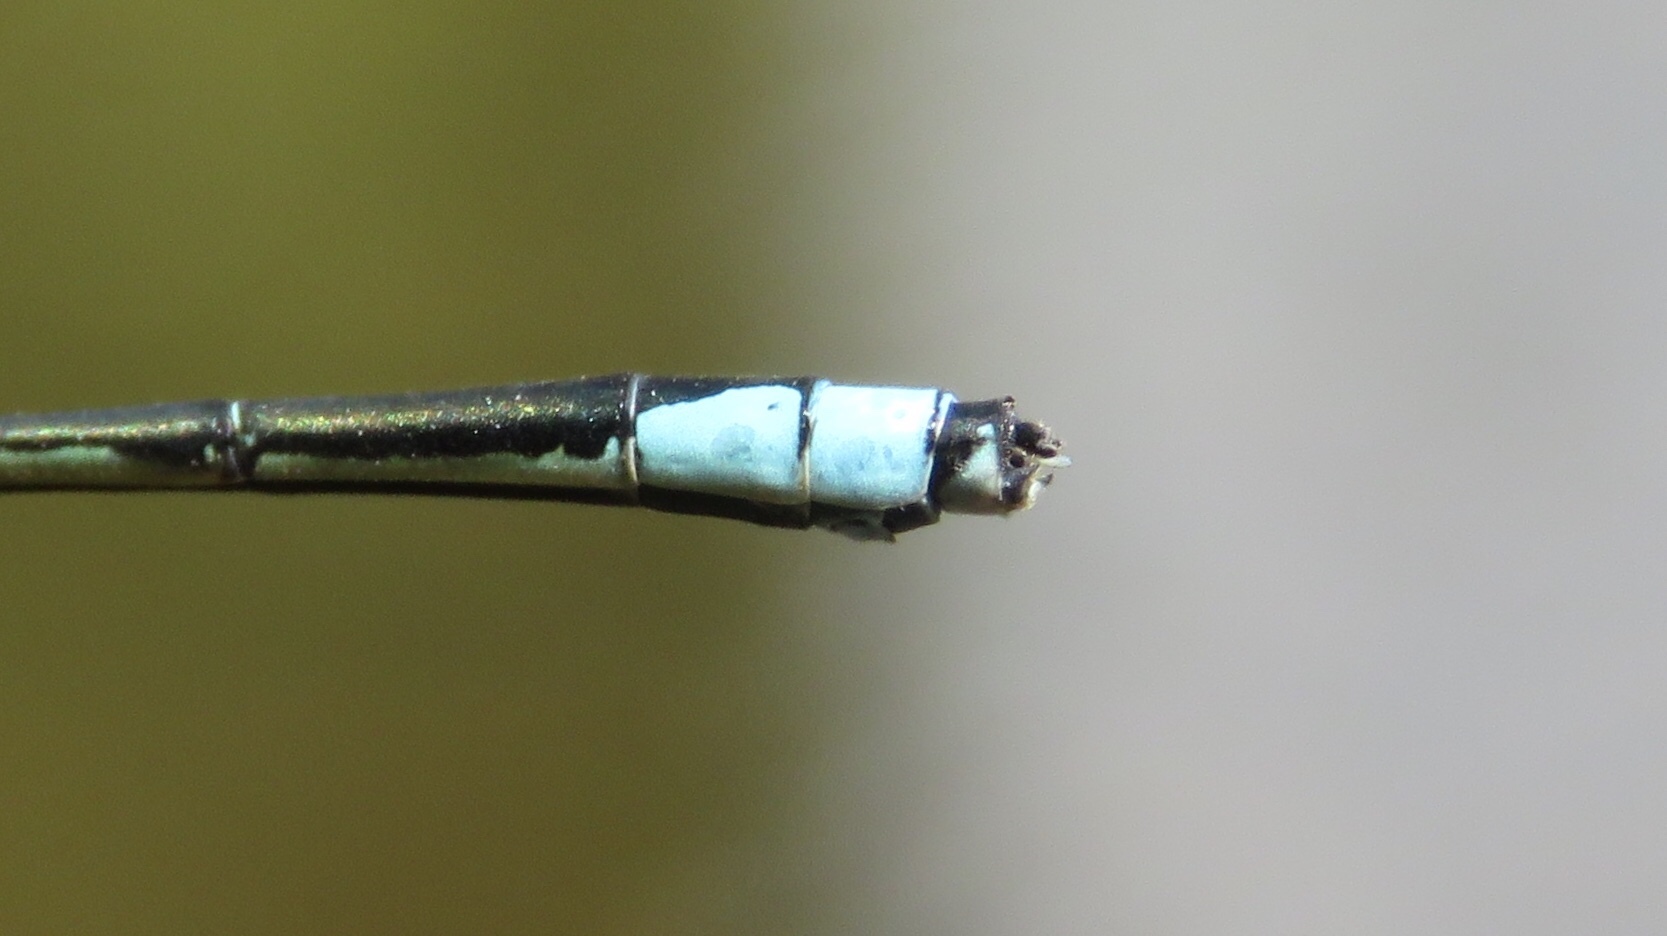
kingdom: Animalia
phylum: Arthropoda
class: Insecta
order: Odonata
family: Coenagrionidae
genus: Enallagma
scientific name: Enallagma exsulans
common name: Stream bluet
